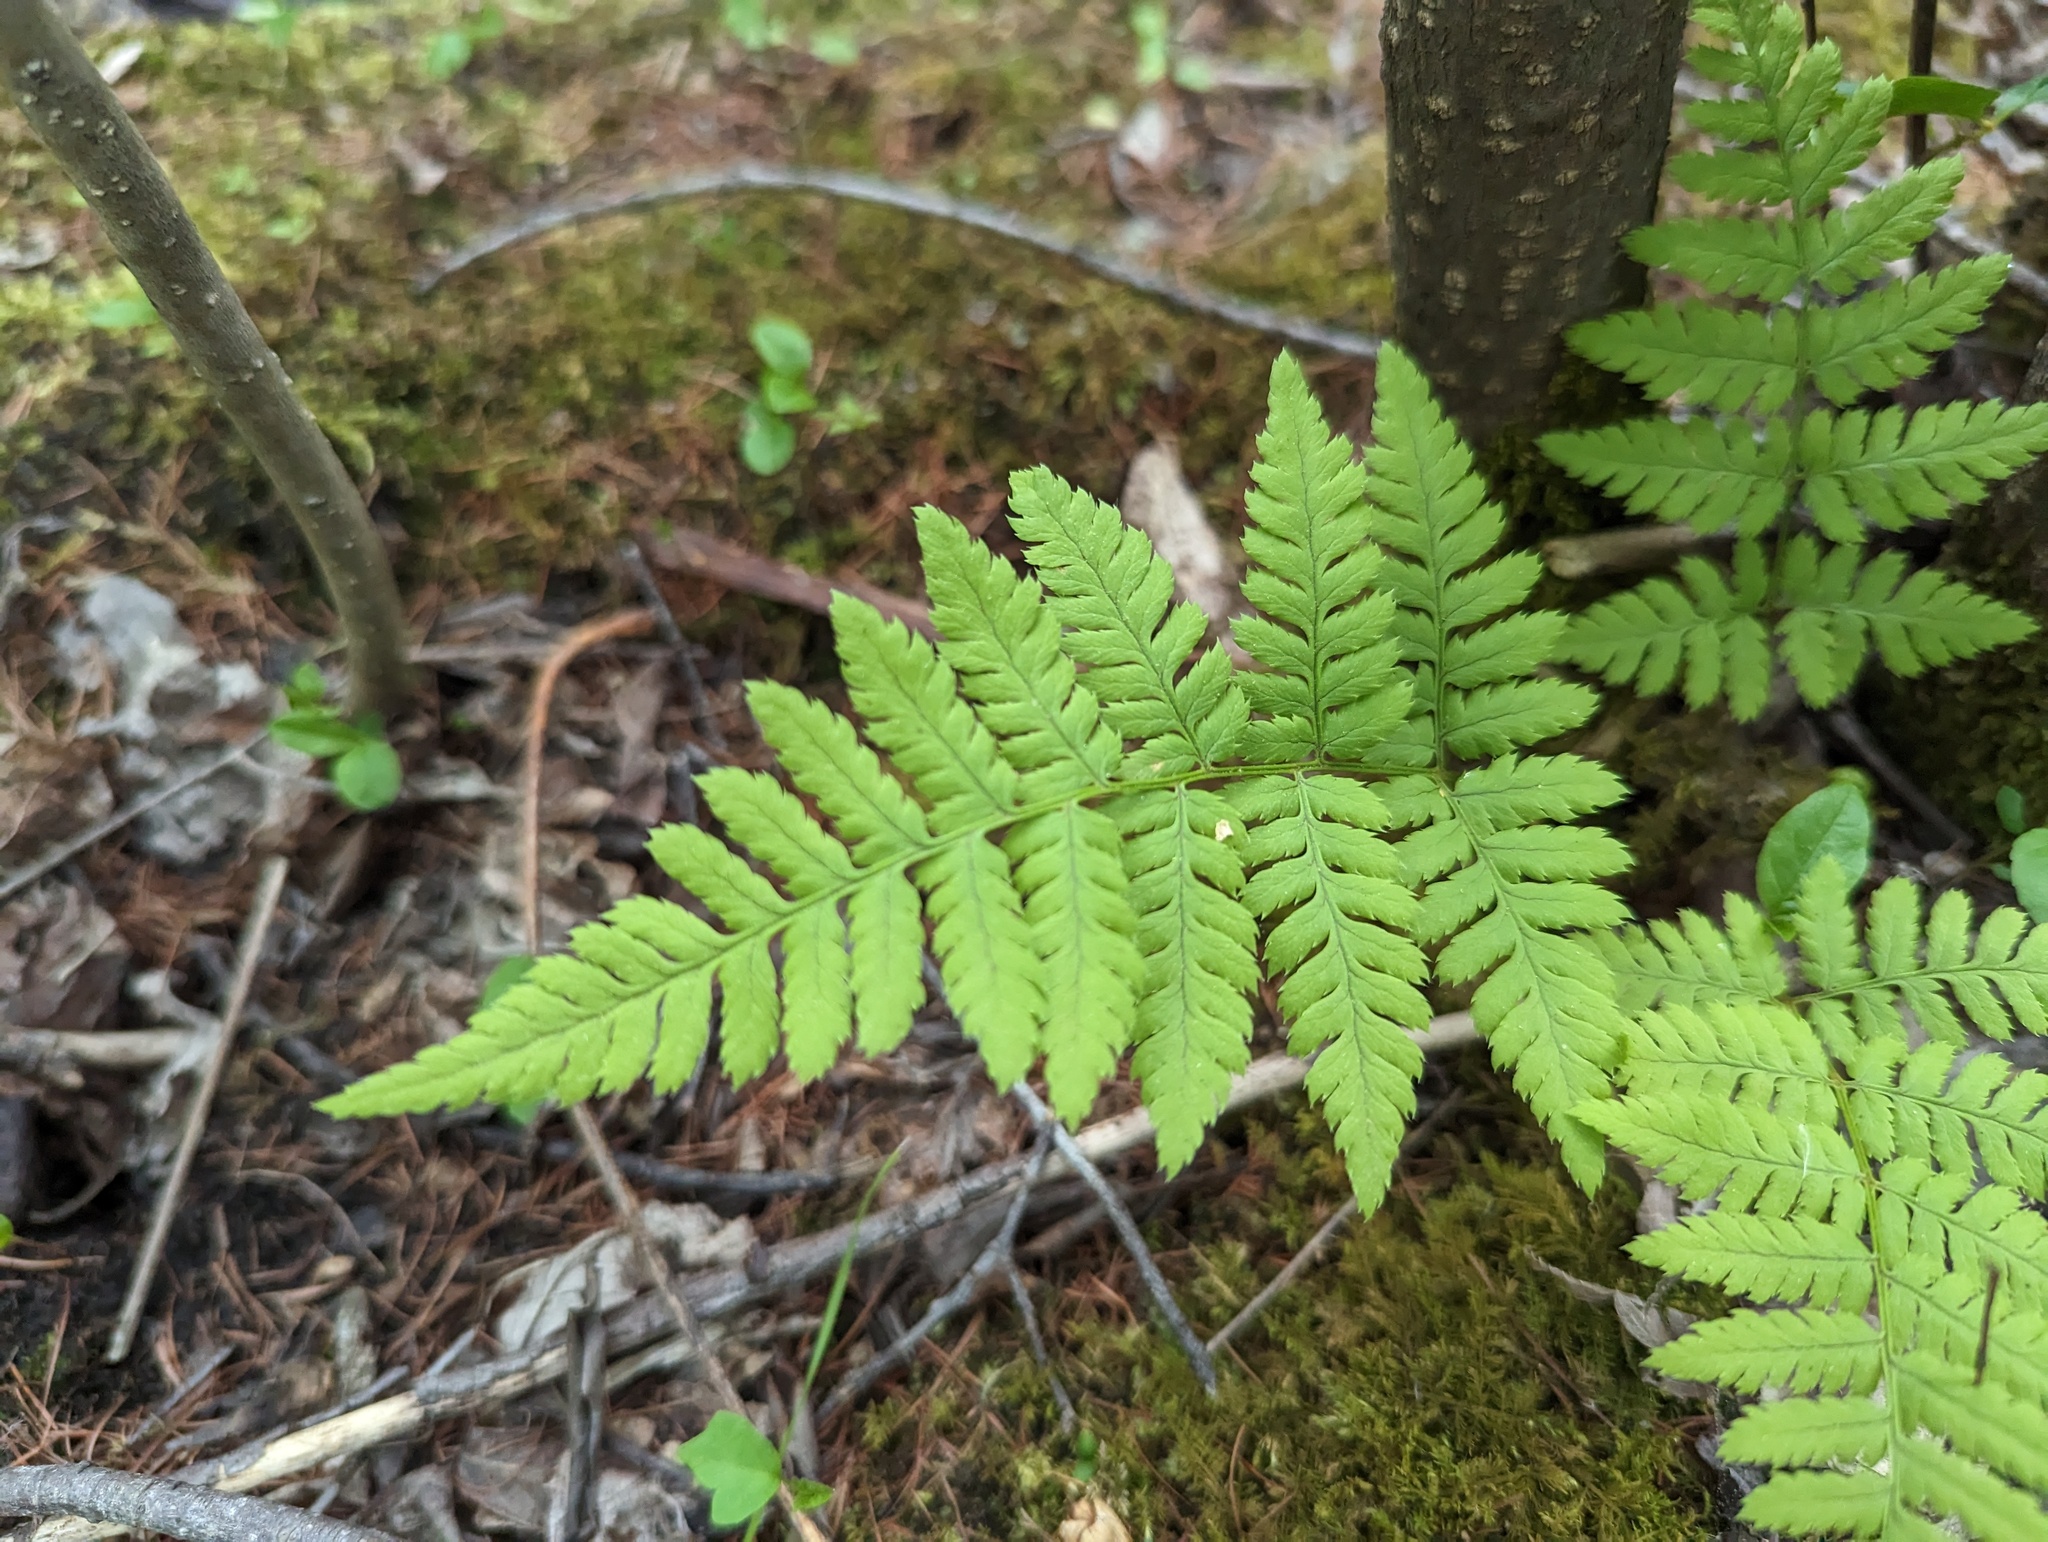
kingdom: Plantae
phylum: Tracheophyta
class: Polypodiopsida
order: Polypodiales
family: Dryopteridaceae
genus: Dryopteris
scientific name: Dryopteris carthusiana
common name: Narrow buckler-fern
